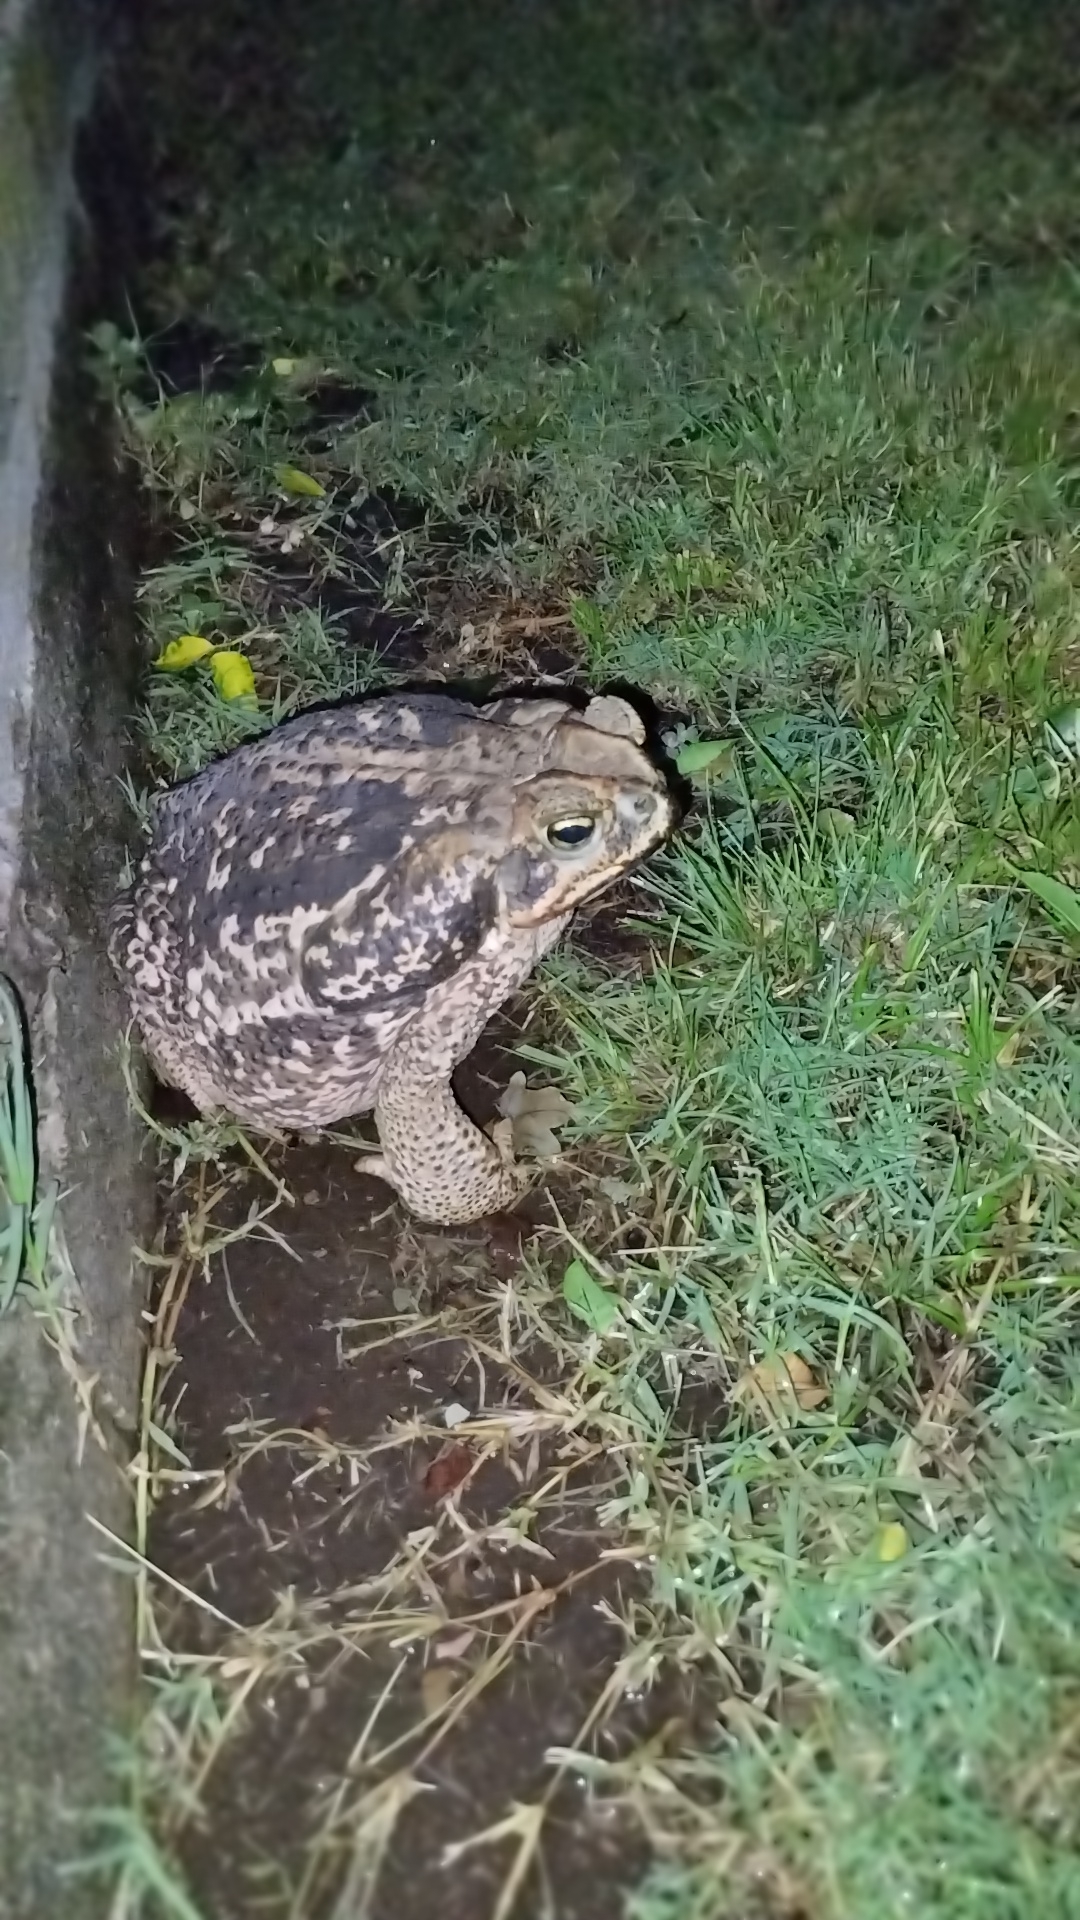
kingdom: Animalia
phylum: Chordata
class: Amphibia
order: Anura
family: Bufonidae
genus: Rhinella
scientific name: Rhinella diptycha
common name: Cope's toad
